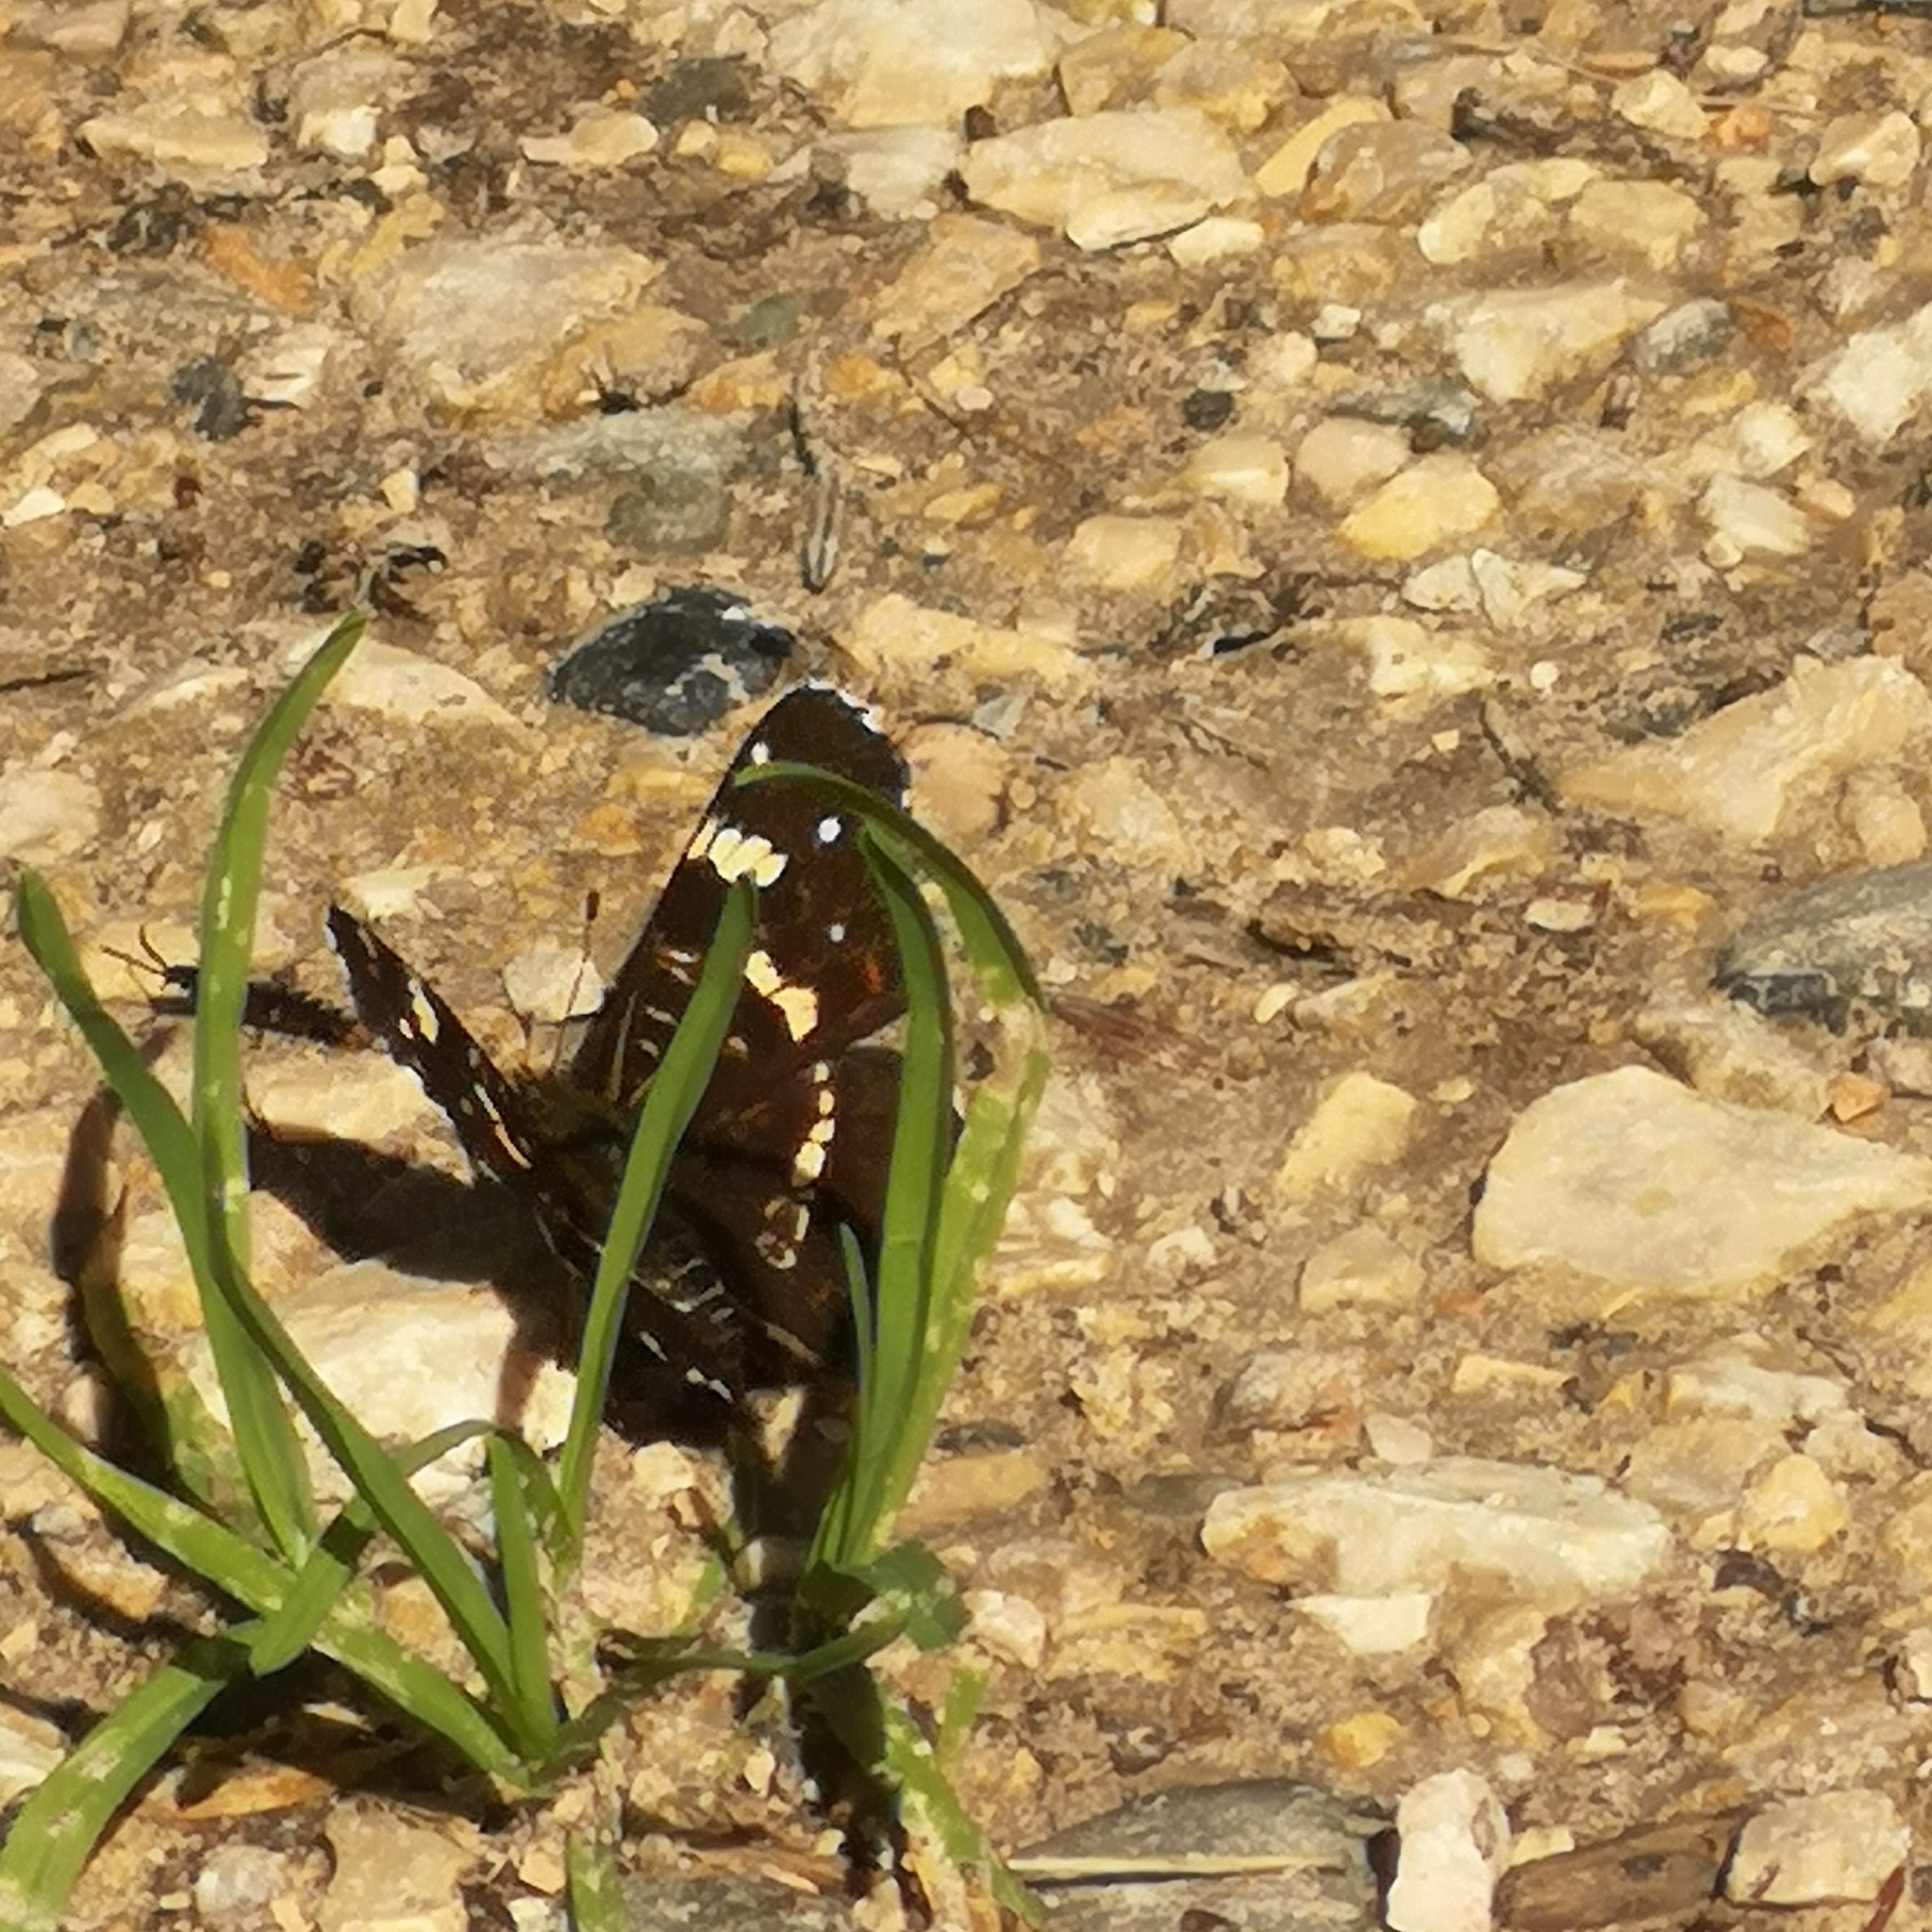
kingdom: Animalia
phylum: Arthropoda
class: Insecta
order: Lepidoptera
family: Nymphalidae
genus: Araschnia
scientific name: Araschnia levana
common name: Map butterfly
